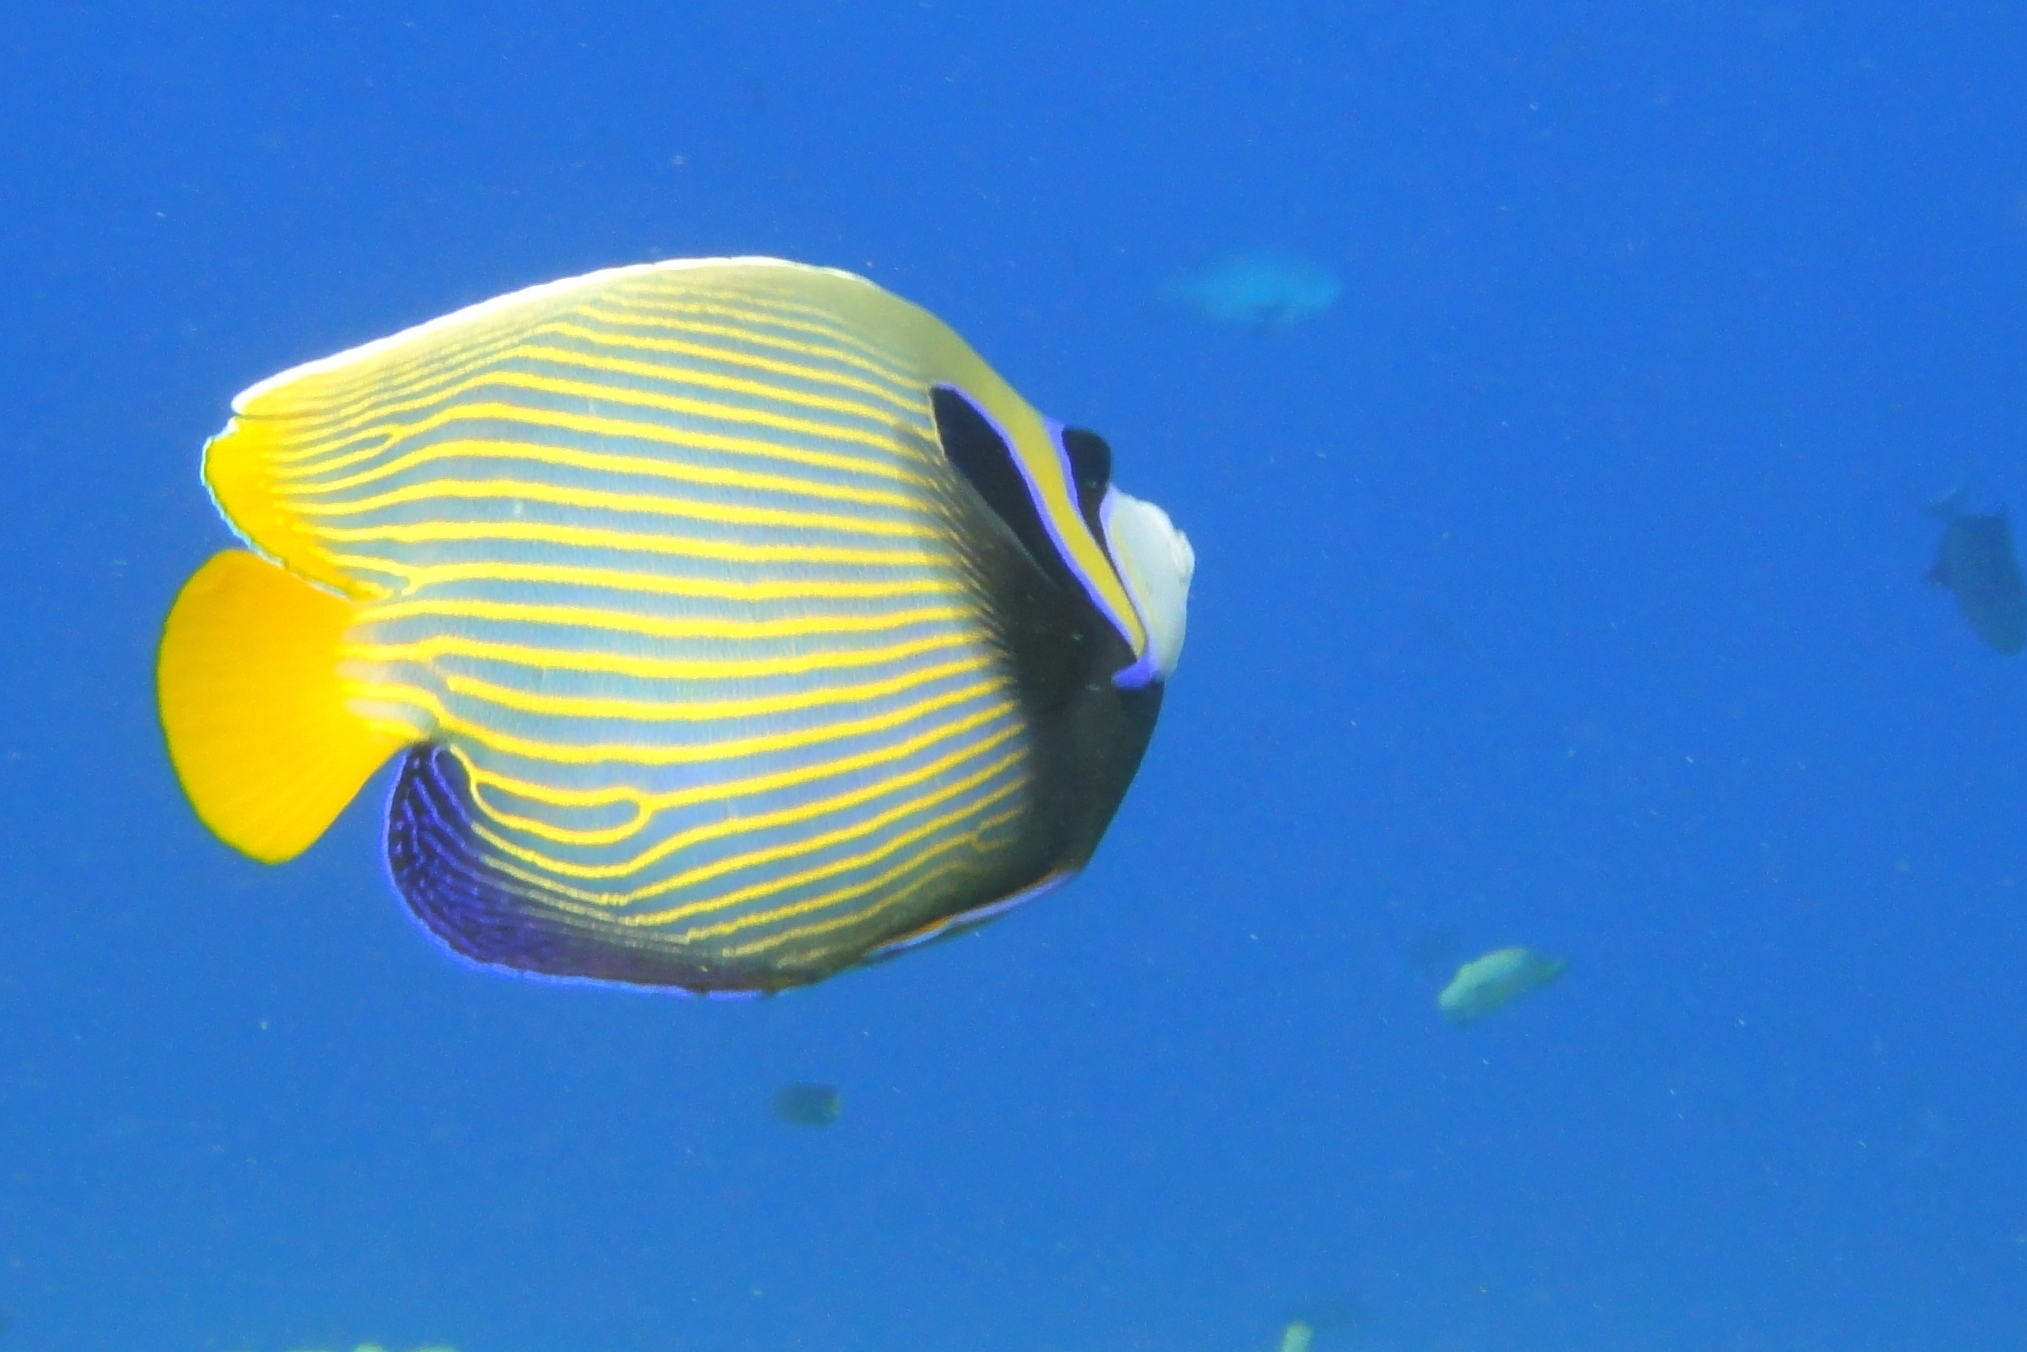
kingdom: Animalia
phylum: Chordata
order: Perciformes
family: Pomacanthidae
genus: Pomacanthus
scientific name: Pomacanthus imperator
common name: Emperor angelfish
